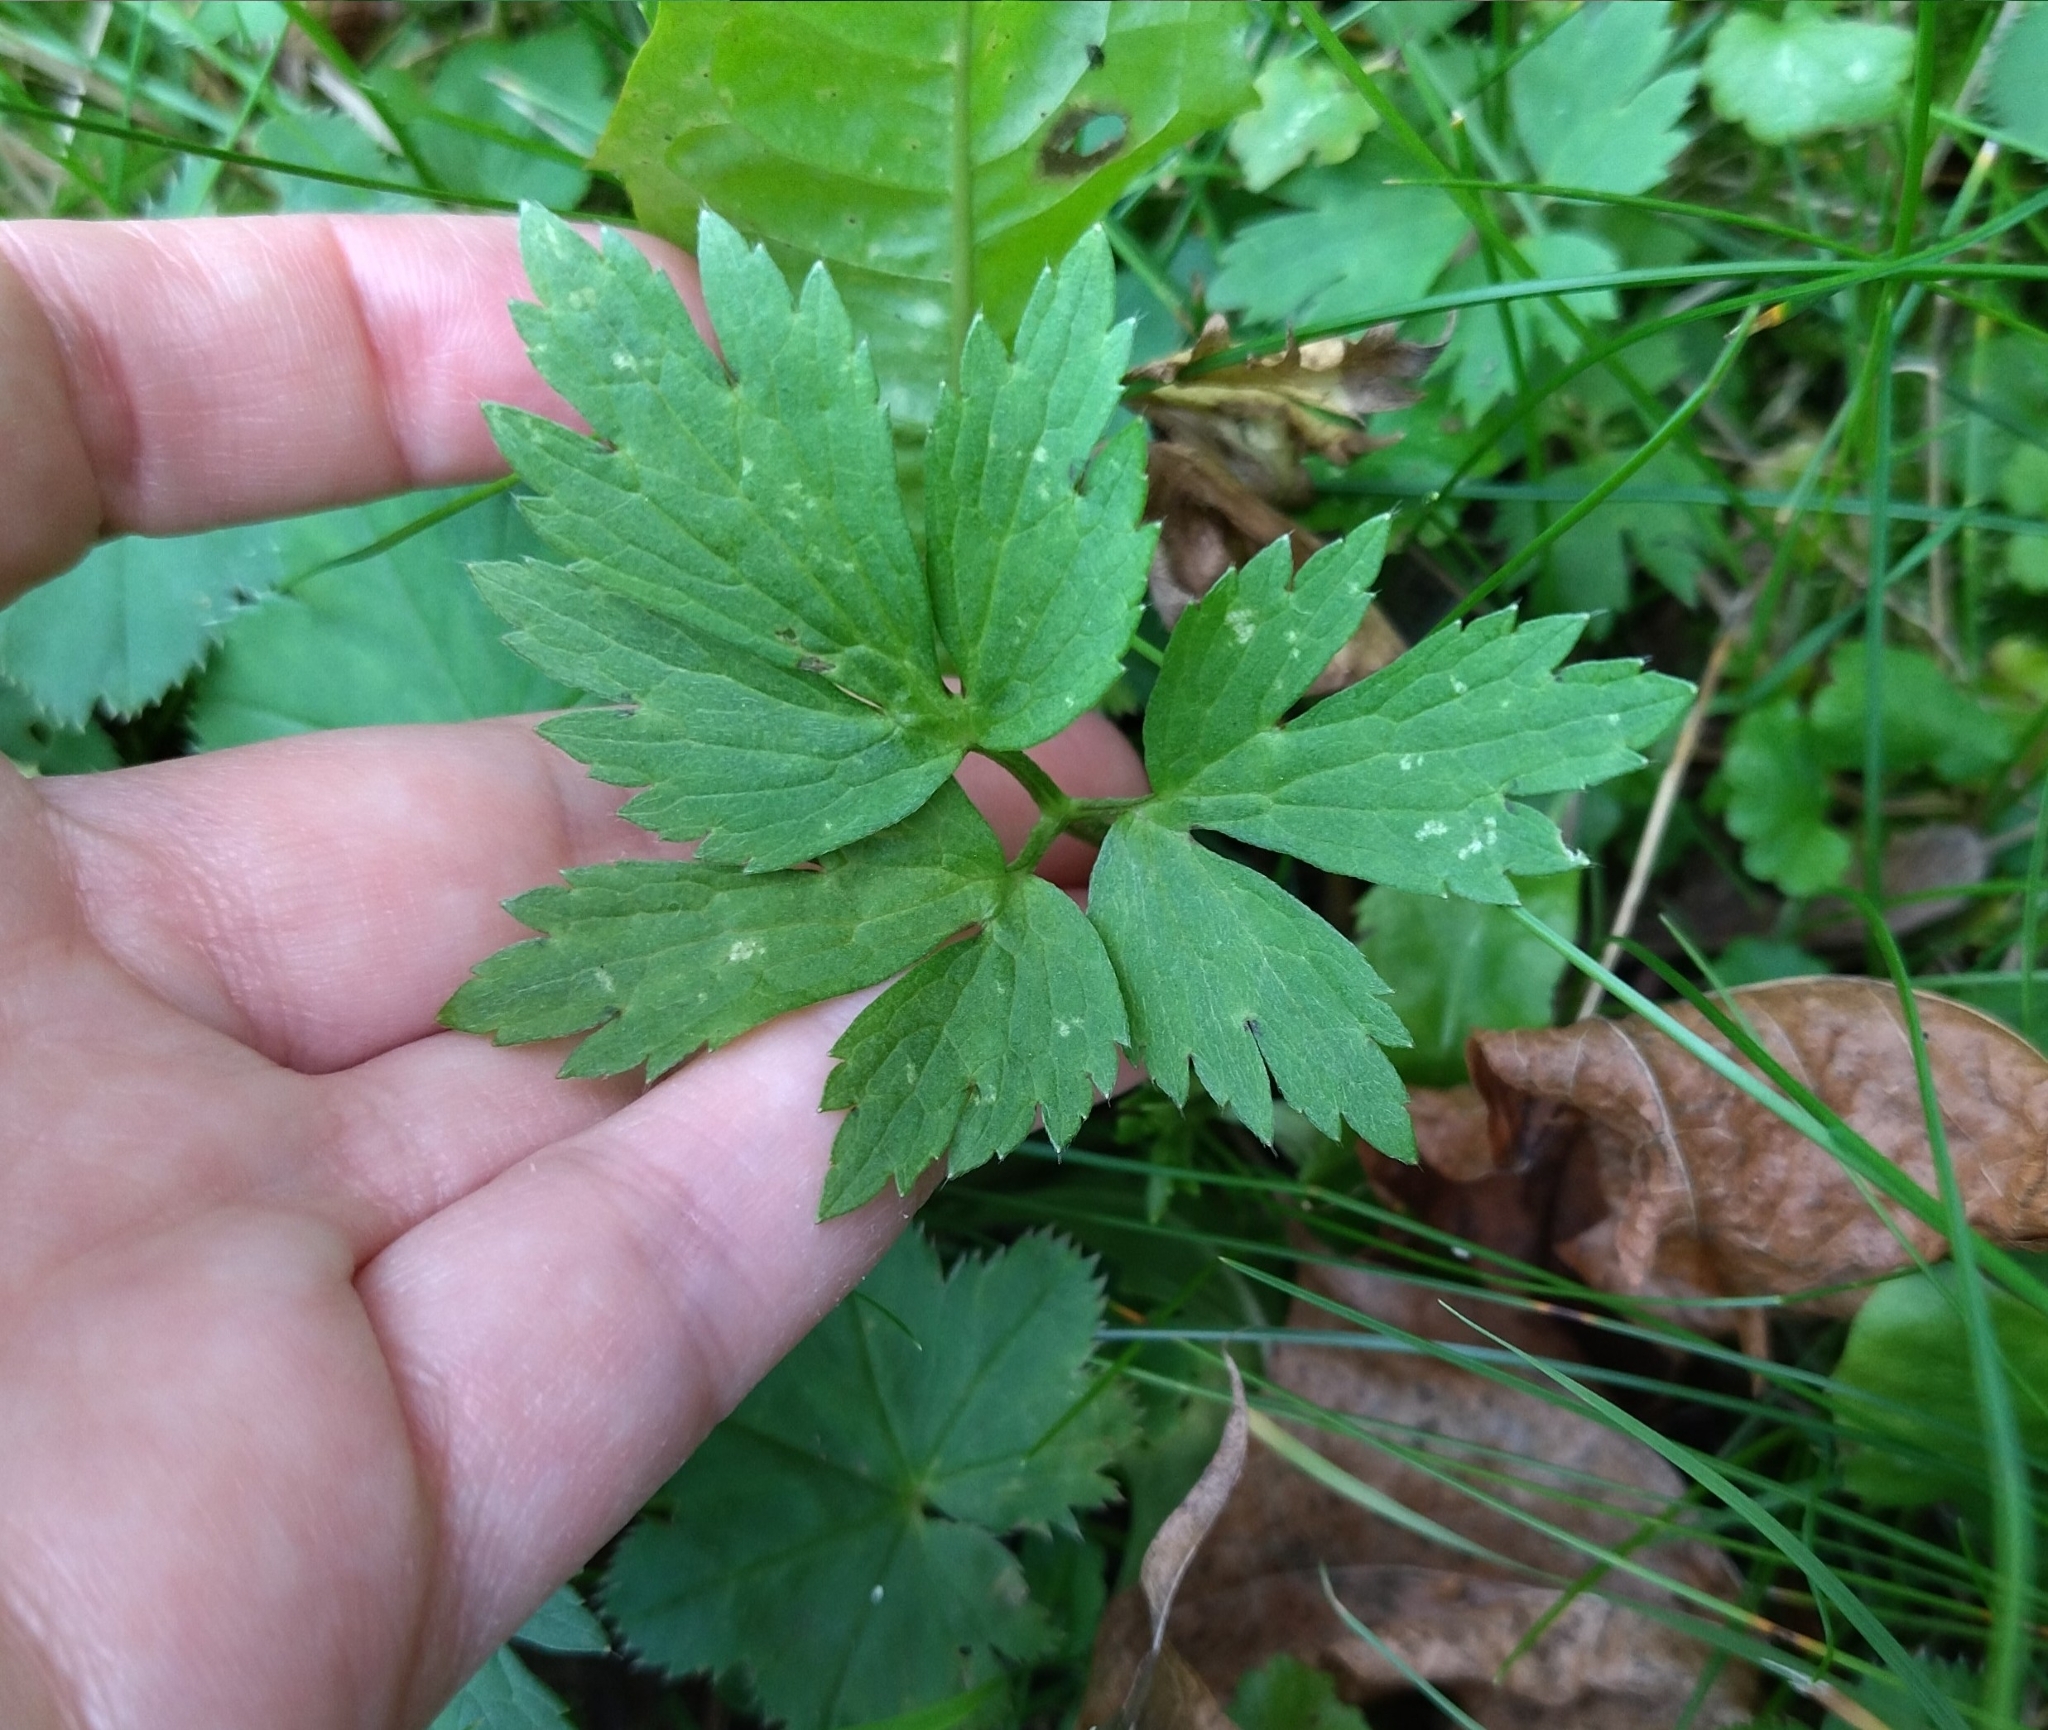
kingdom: Plantae
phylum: Tracheophyta
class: Magnoliopsida
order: Ranunculales
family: Ranunculaceae
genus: Ranunculus
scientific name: Ranunculus repens
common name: Creeping buttercup
